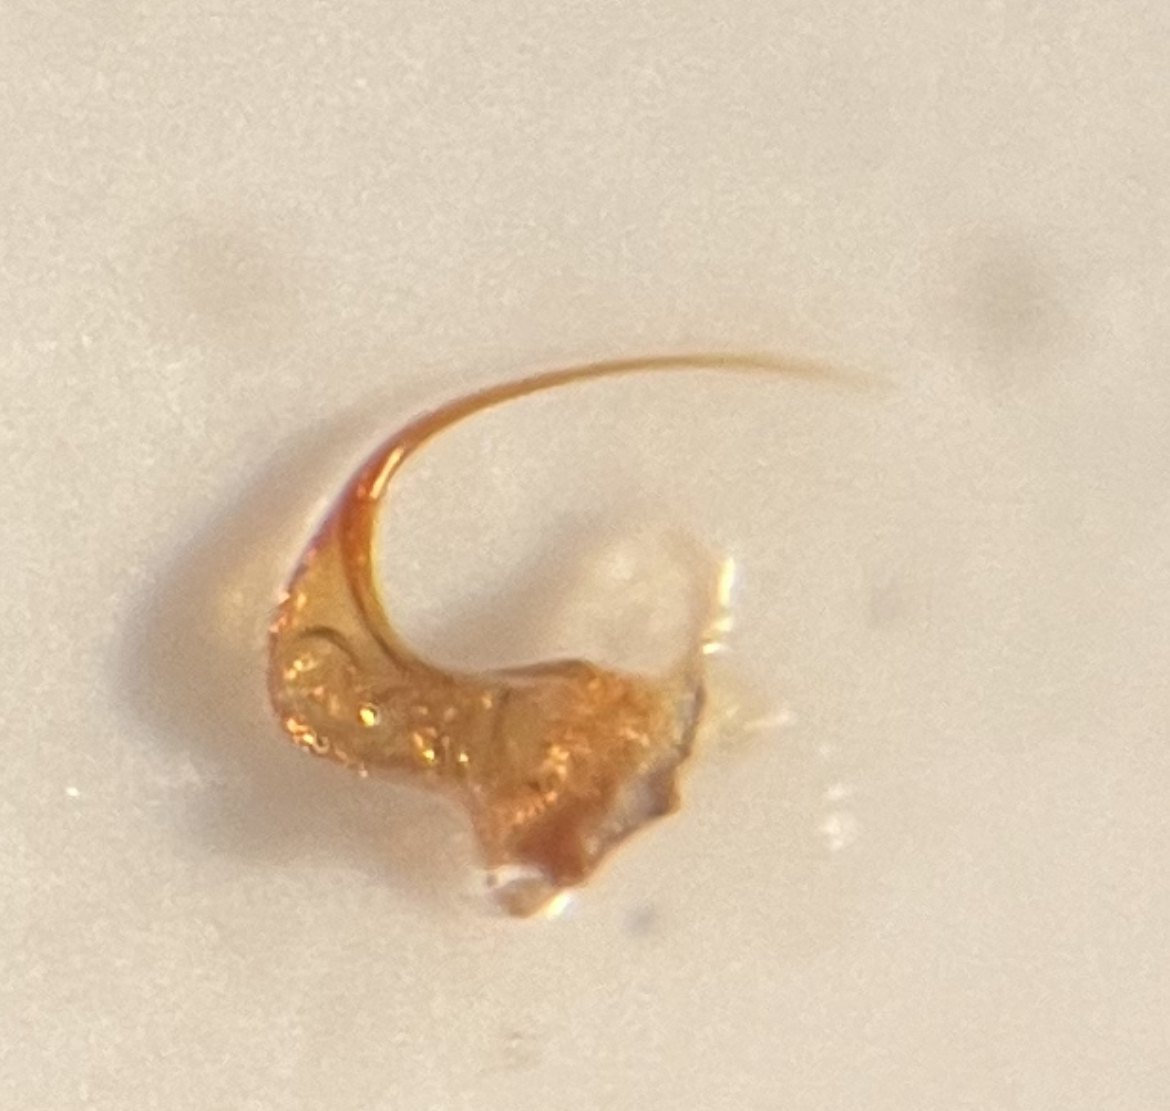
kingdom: Animalia
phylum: Arthropoda
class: Insecta
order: Hemiptera
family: Cicadellidae
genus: Balclutha
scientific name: Balclutha punctata
